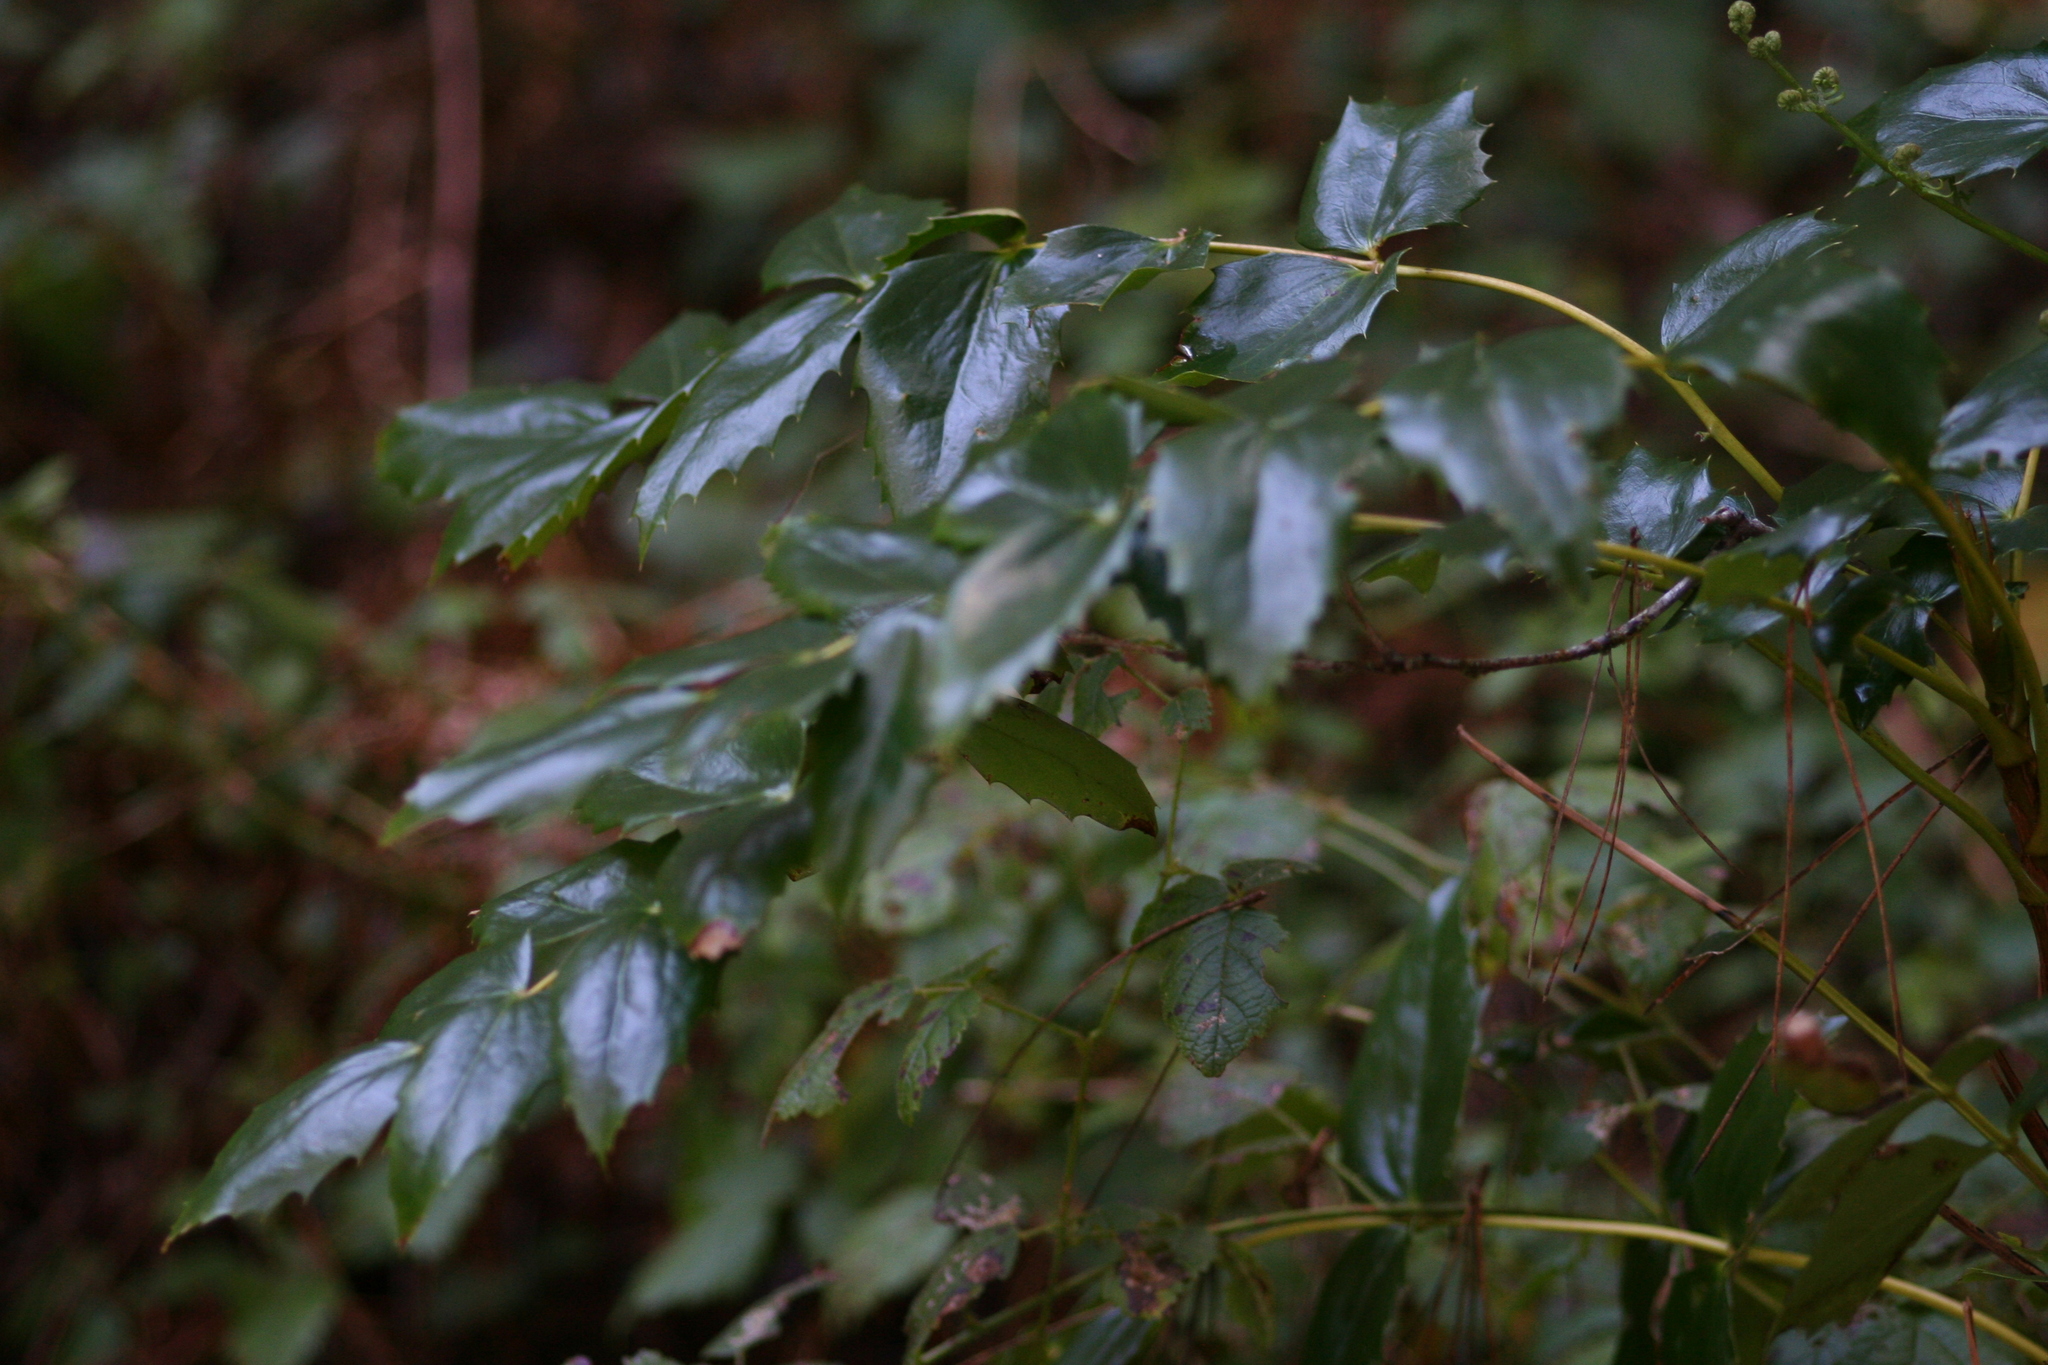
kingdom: Plantae
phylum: Tracheophyta
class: Magnoliopsida
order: Ranunculales
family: Berberidaceae
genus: Mahonia
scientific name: Mahonia nervosa
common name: Cascade oregon-grape
